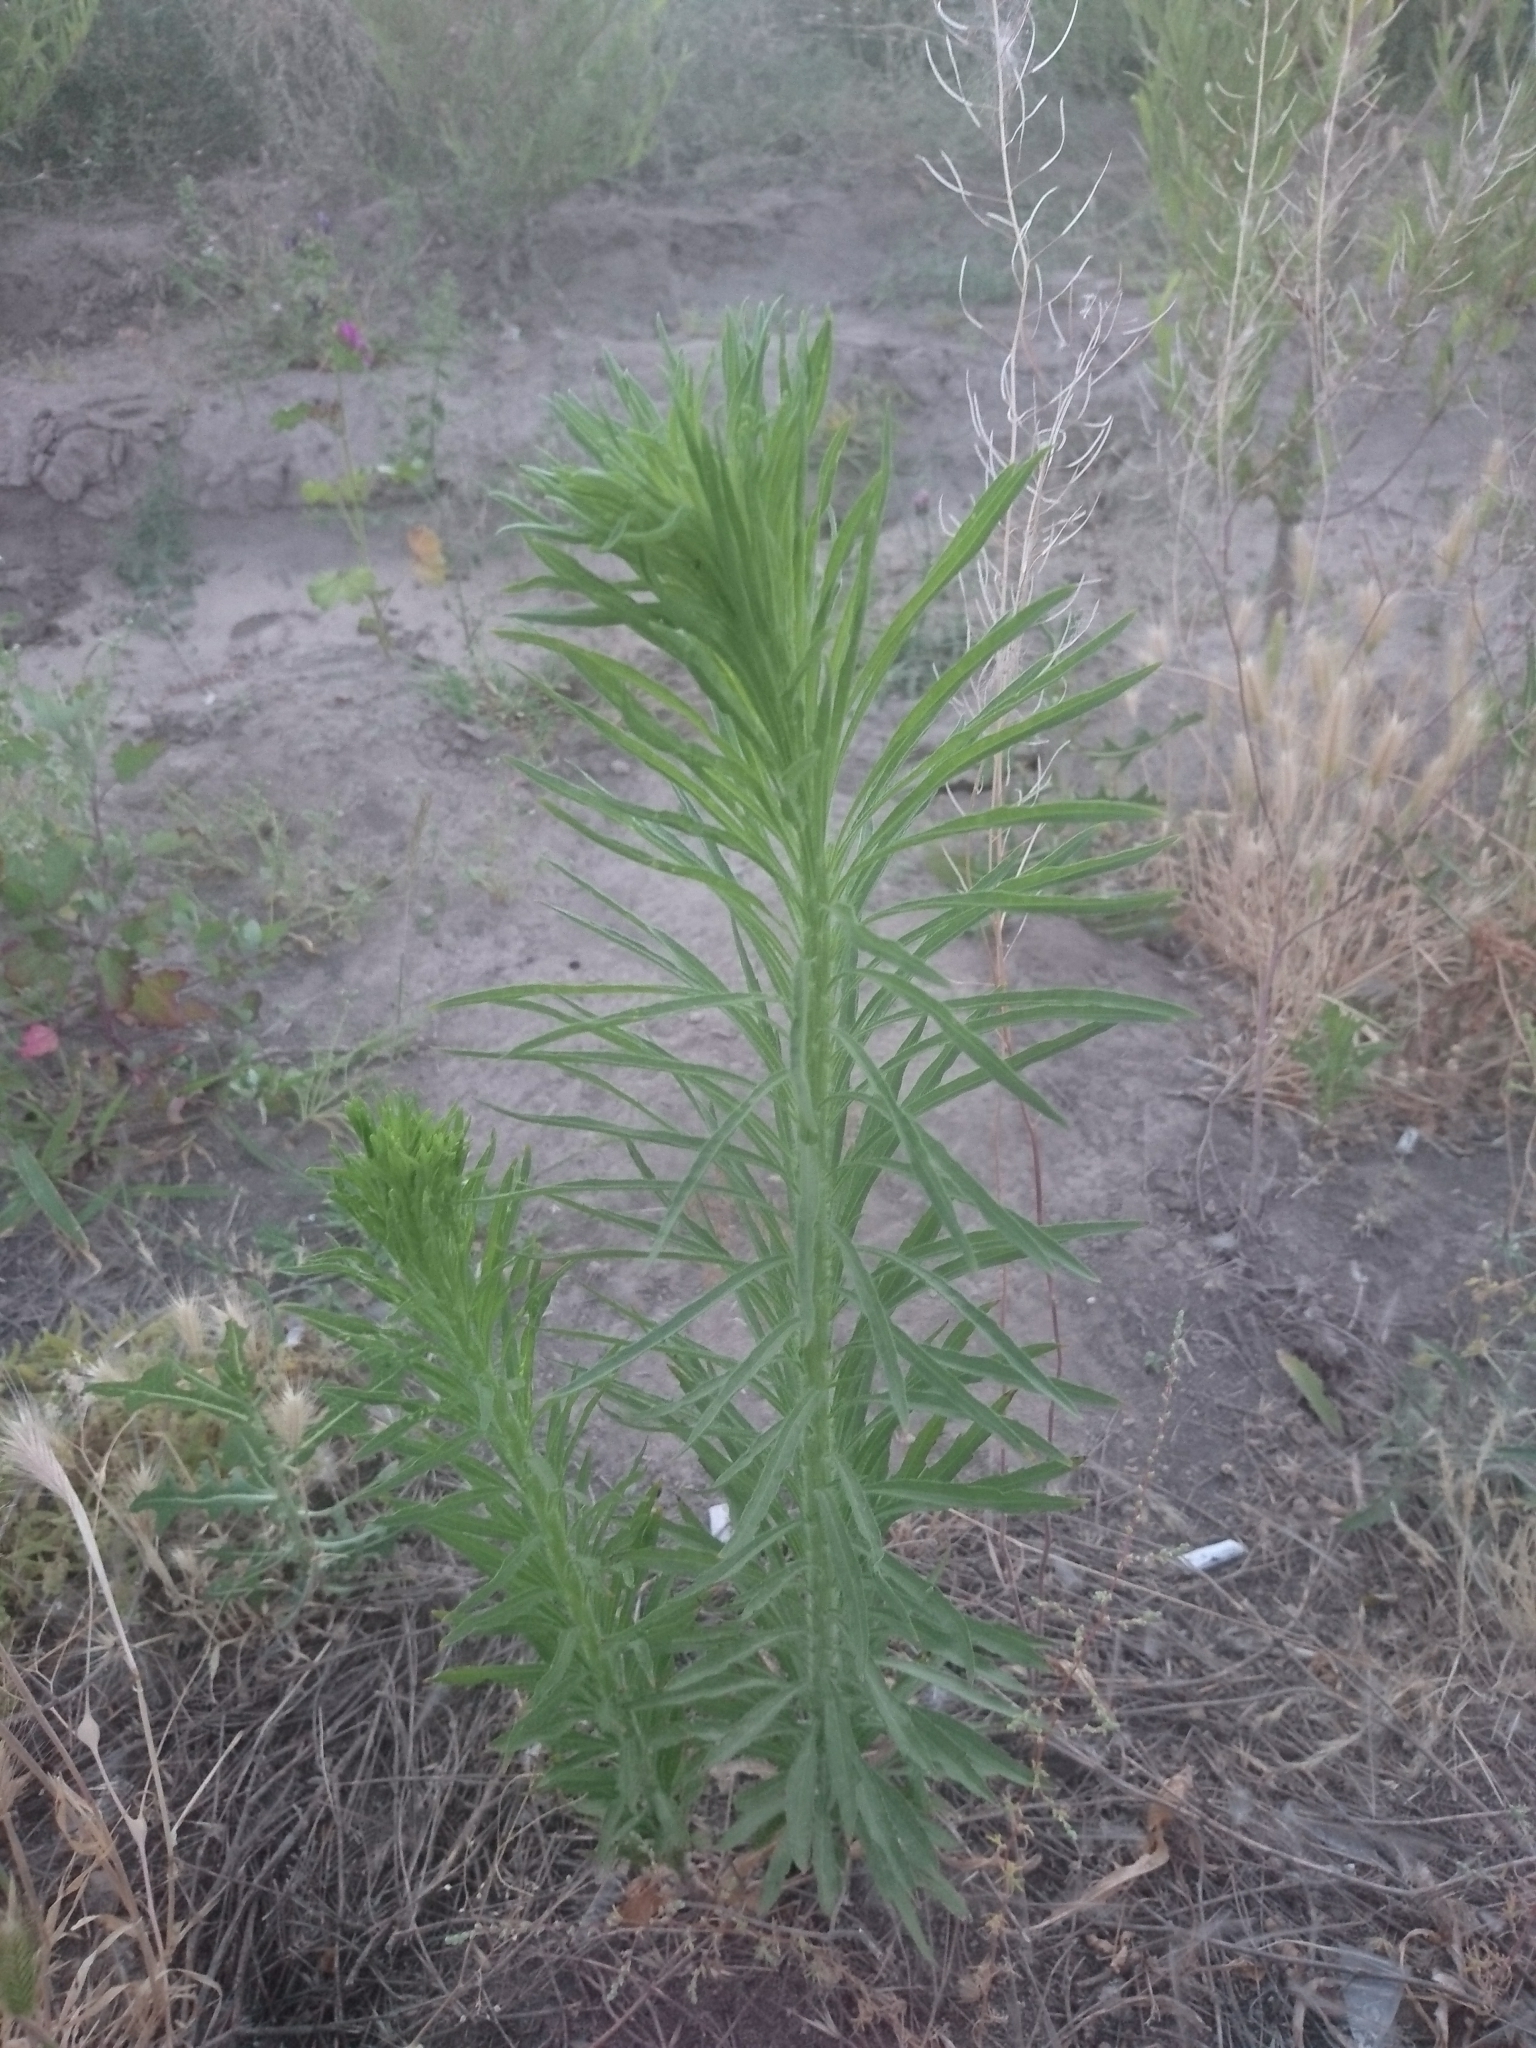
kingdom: Plantae
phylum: Tracheophyta
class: Magnoliopsida
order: Asterales
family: Asteraceae
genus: Erigeron
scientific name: Erigeron canadensis
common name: Canadian fleabane
